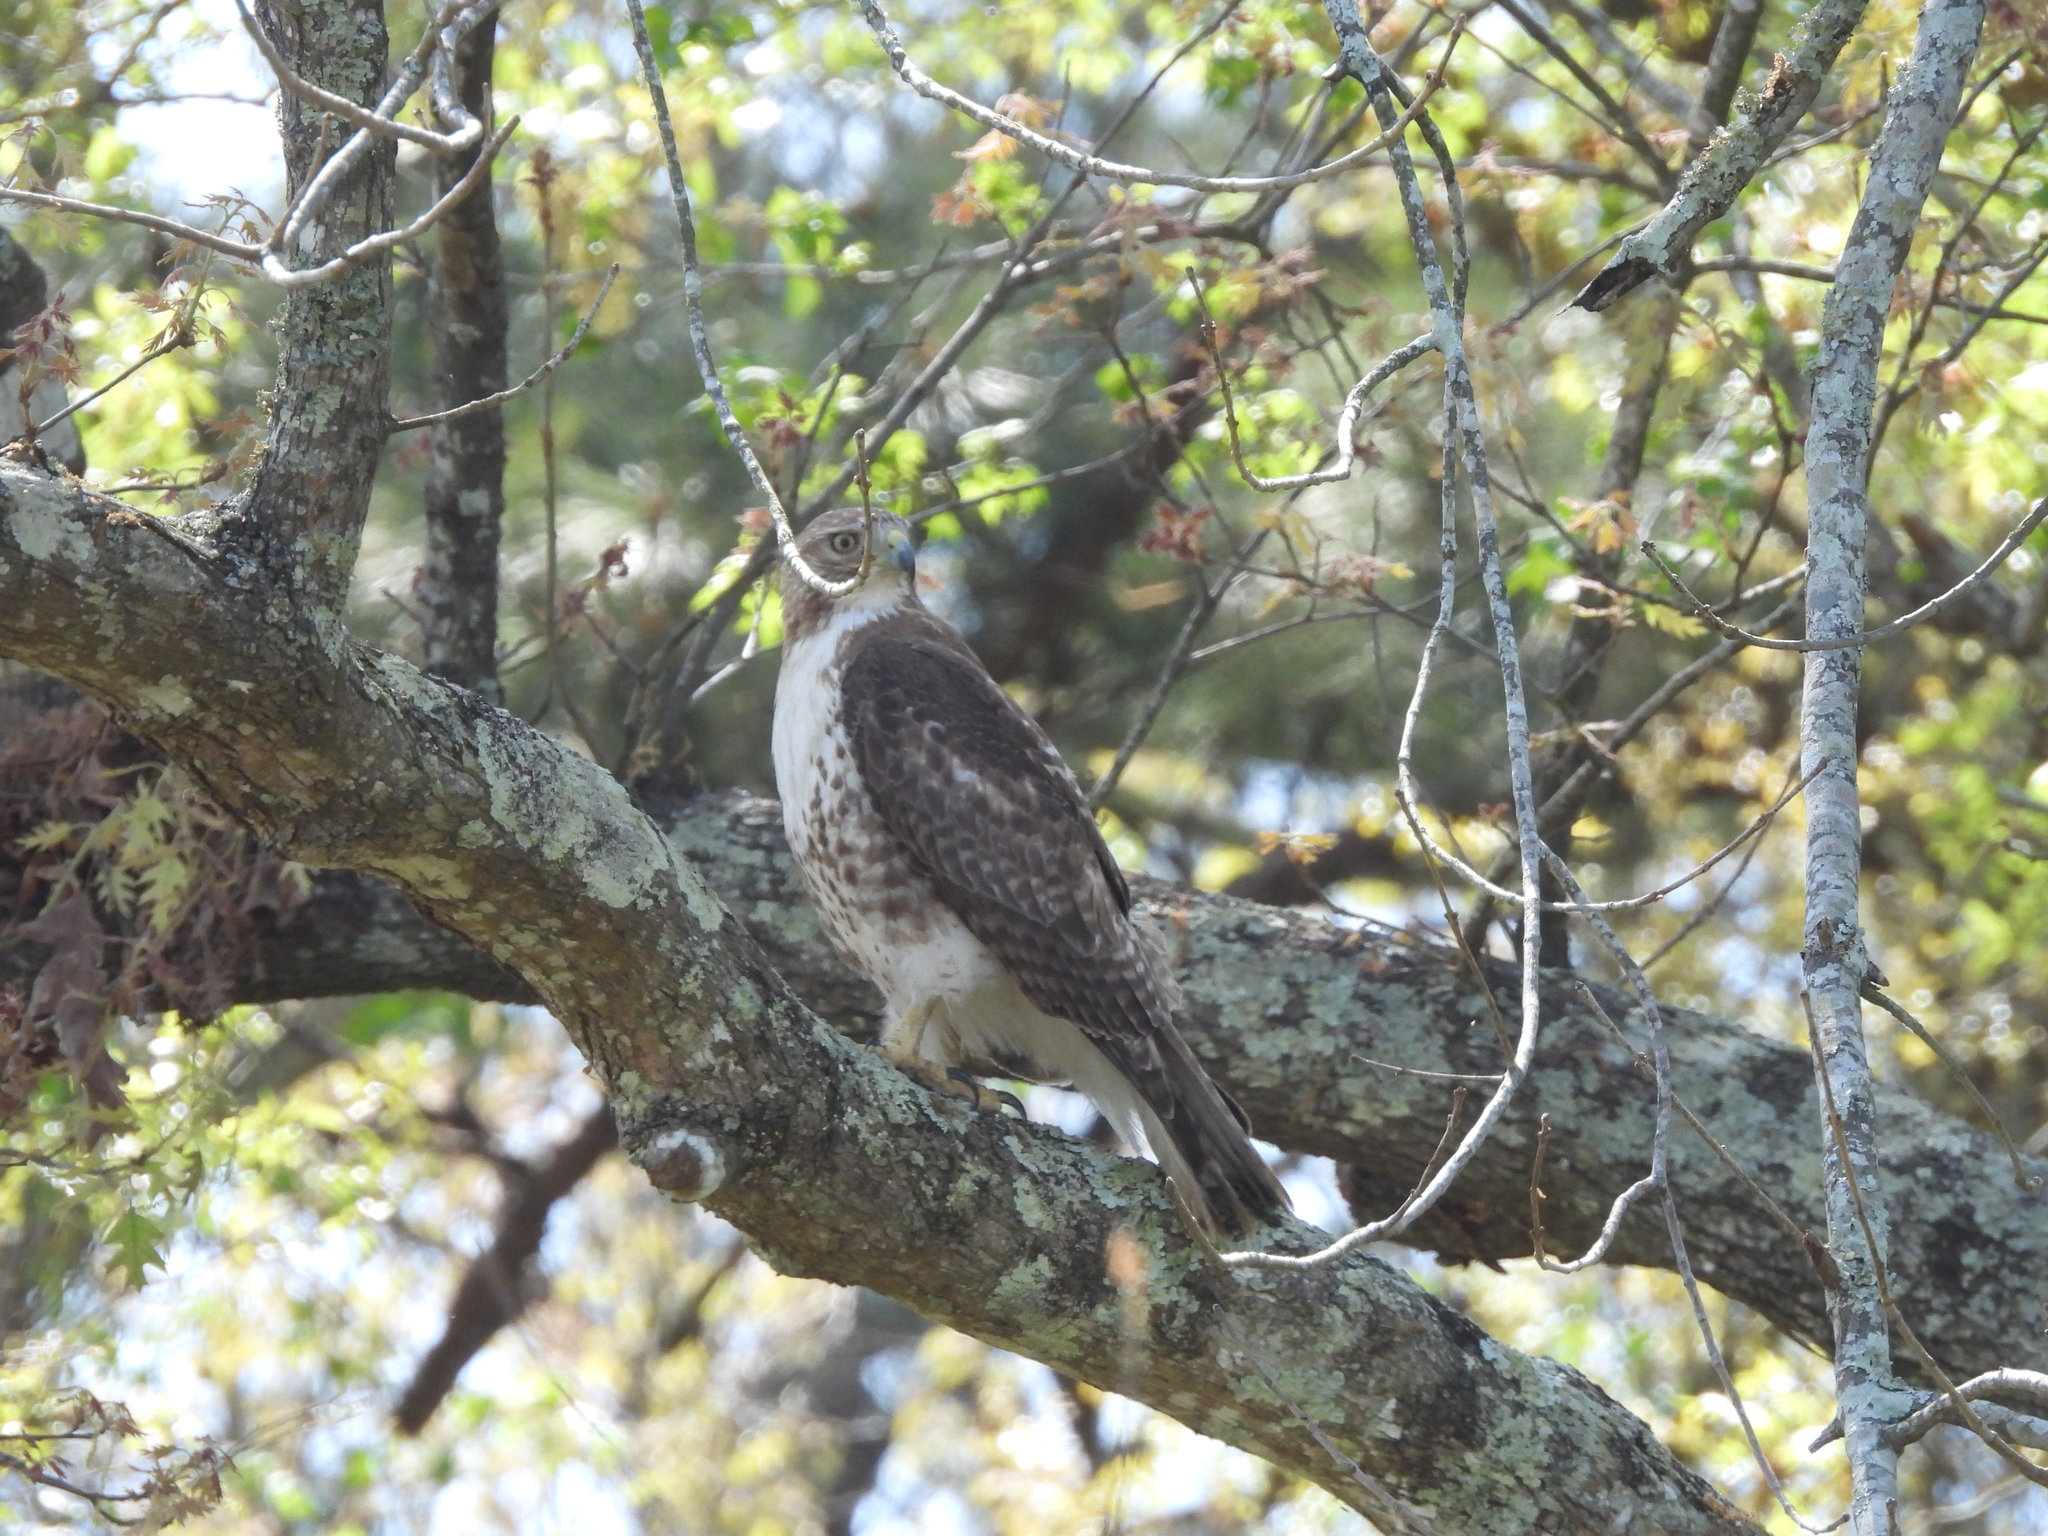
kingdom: Animalia
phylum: Chordata
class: Aves
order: Accipitriformes
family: Accipitridae
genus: Buteo
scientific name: Buteo jamaicensis
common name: Red-tailed hawk
